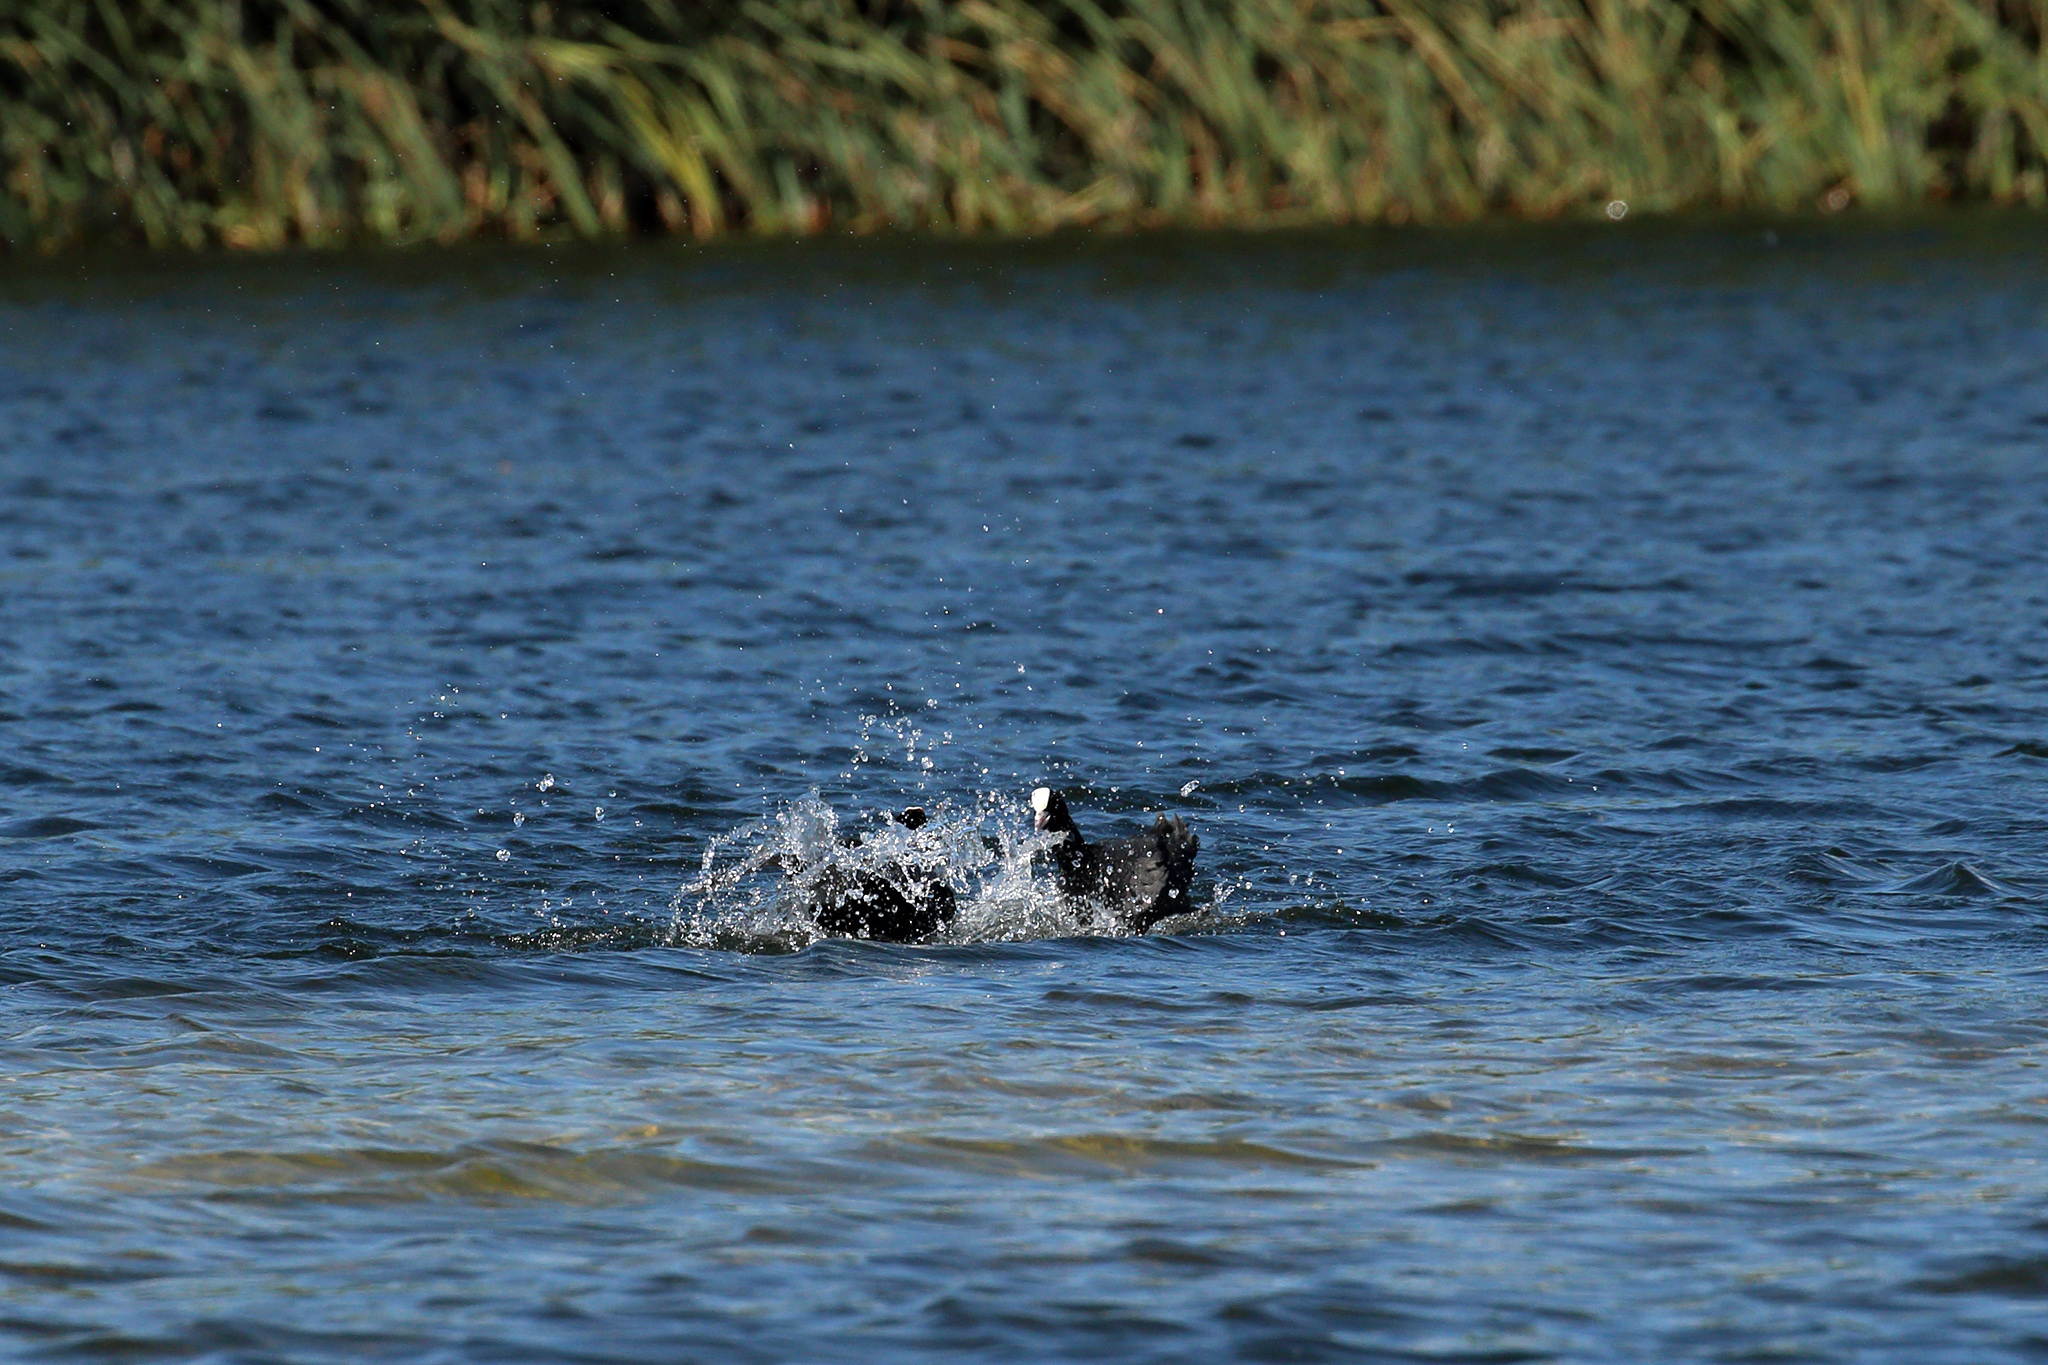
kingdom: Animalia
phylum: Chordata
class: Aves
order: Gruiformes
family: Rallidae
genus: Fulica
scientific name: Fulica atra
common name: Eurasian coot
